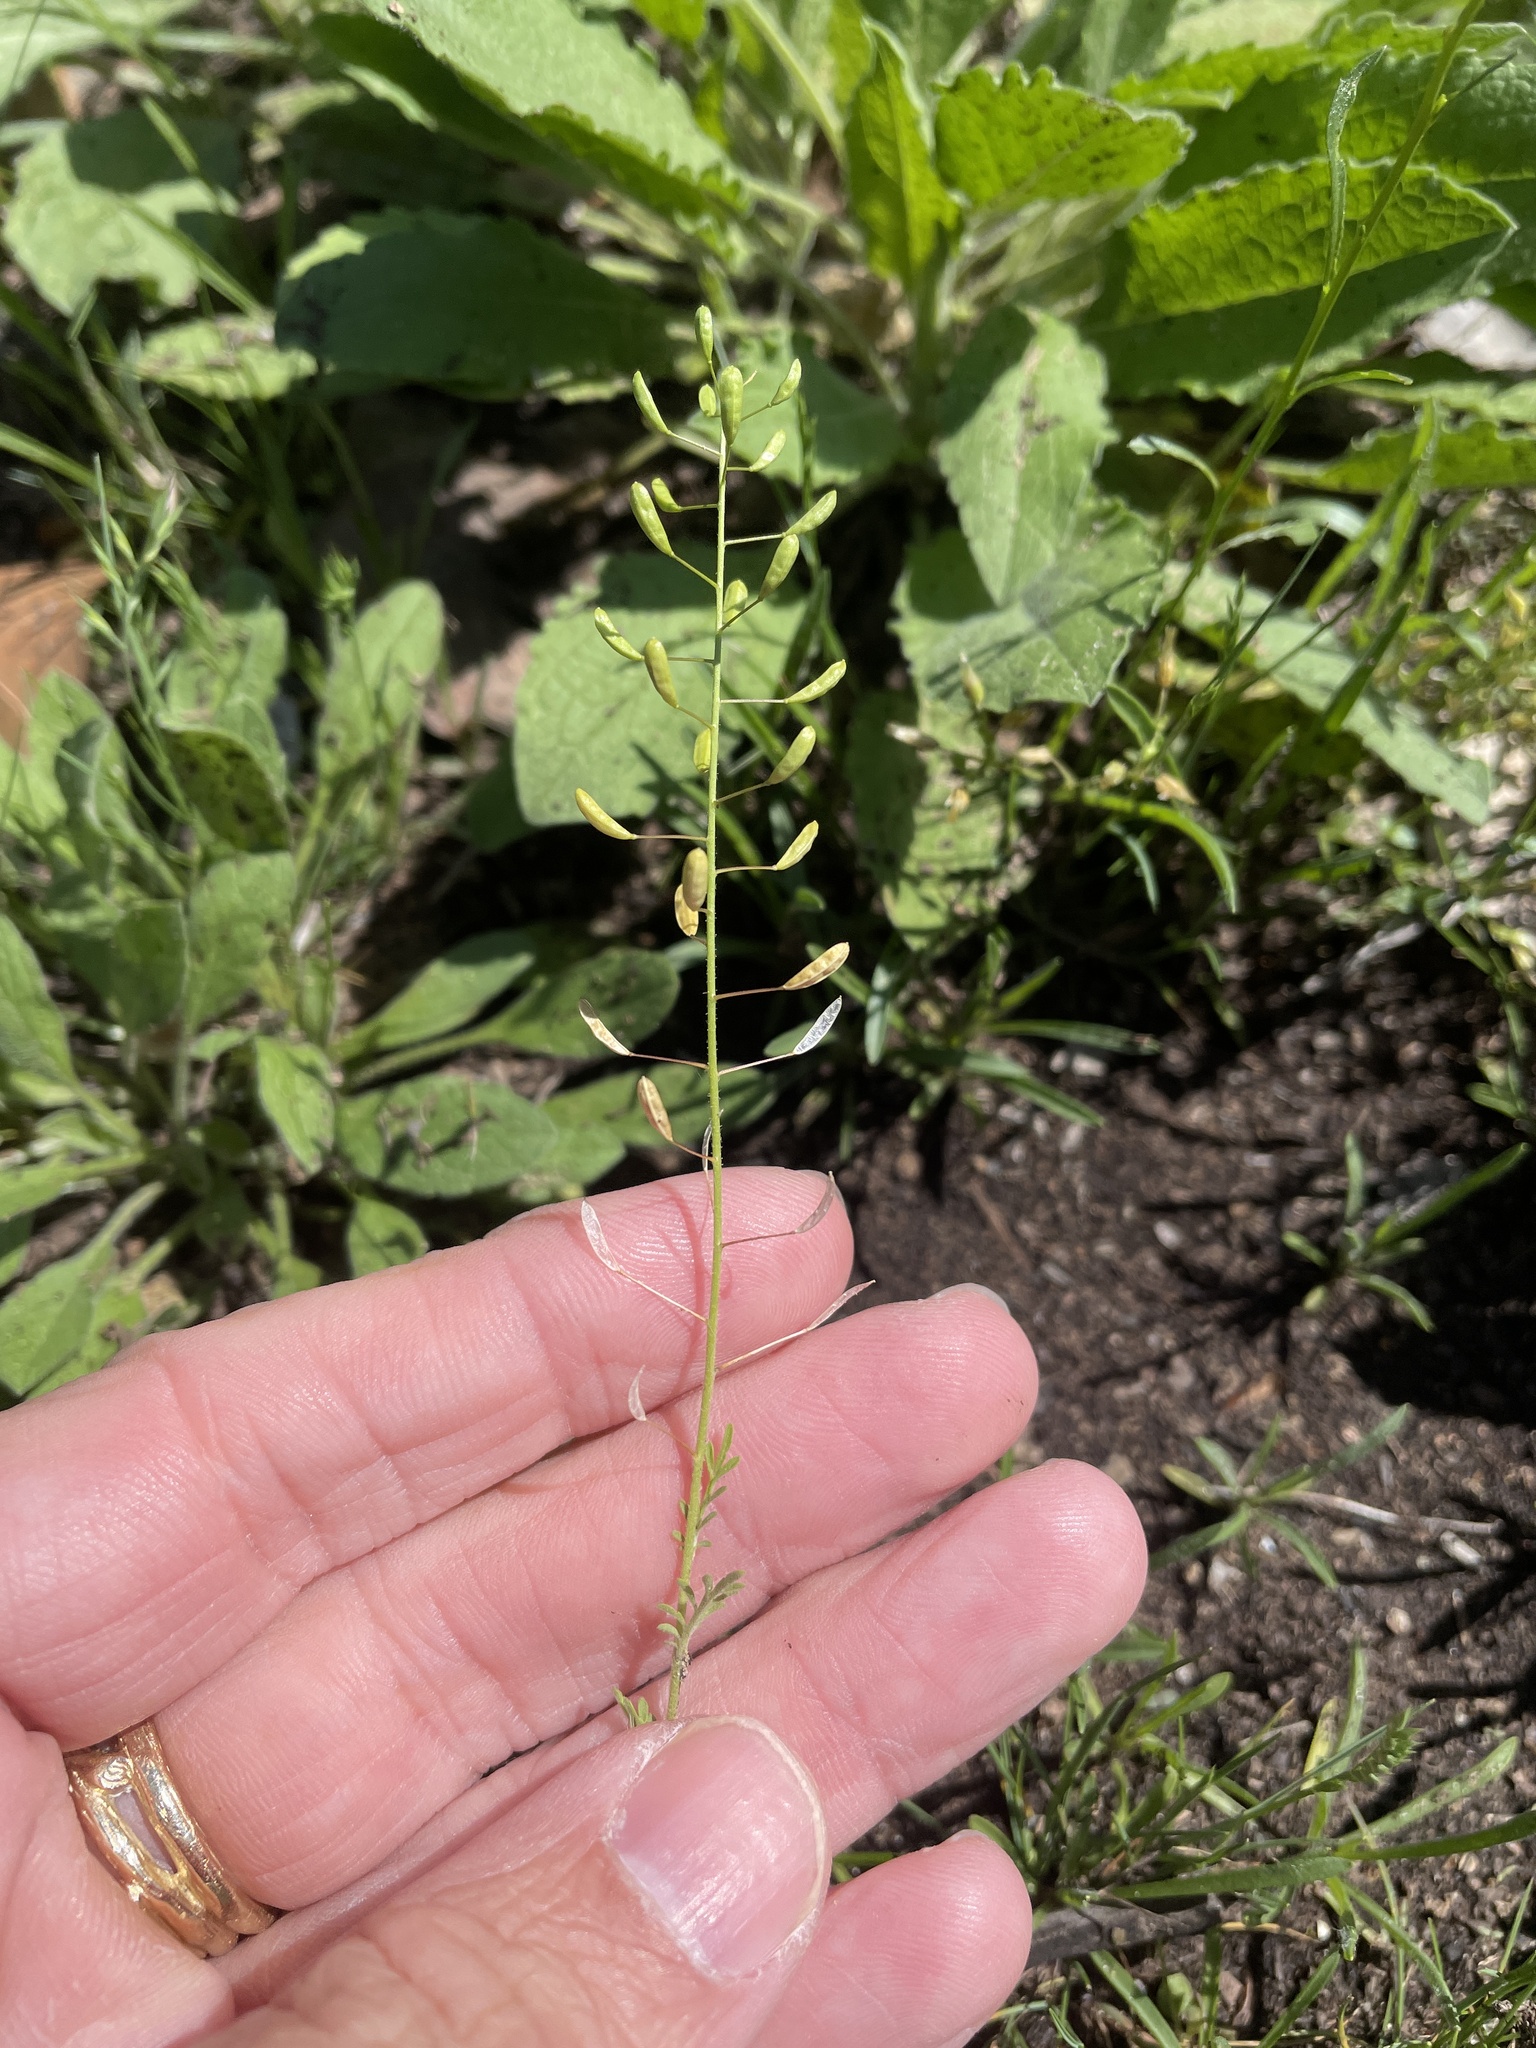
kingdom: Plantae
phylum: Tracheophyta
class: Magnoliopsida
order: Brassicales
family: Brassicaceae
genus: Descurainia
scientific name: Descurainia pinnata
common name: Western tansy mustard
